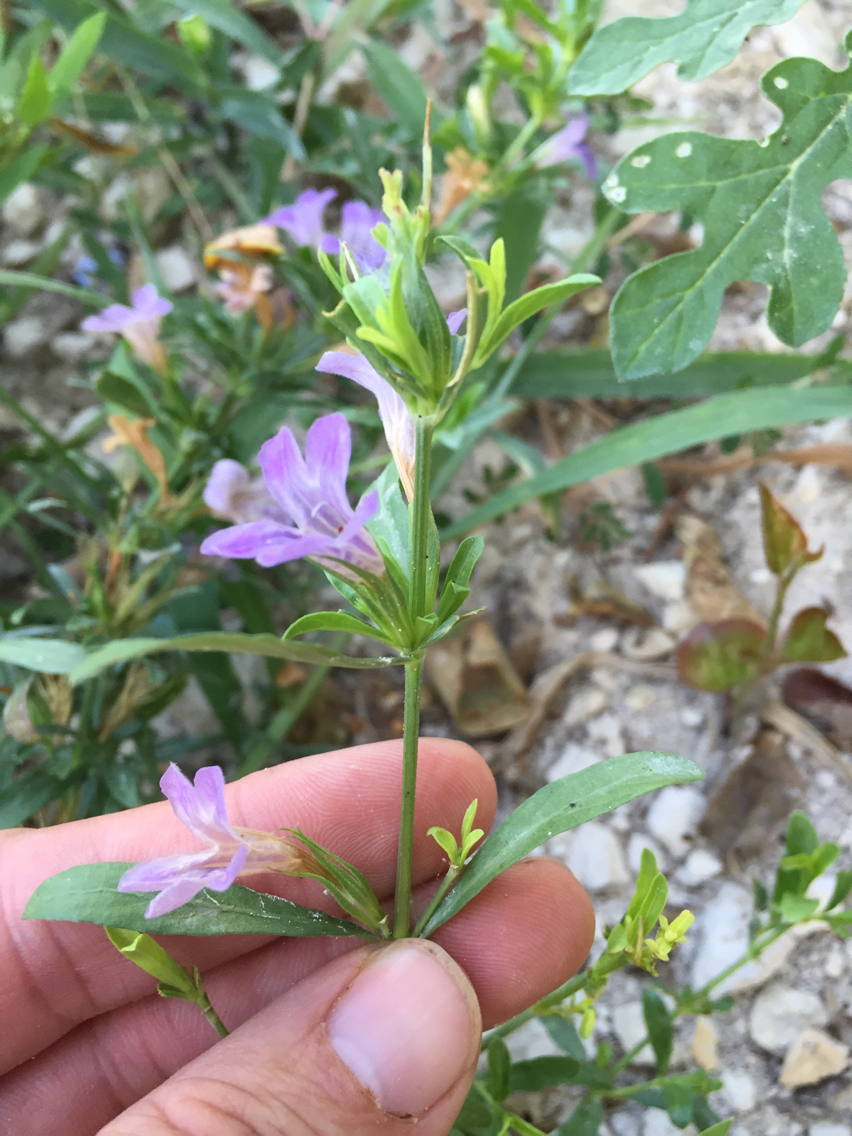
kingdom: Plantae
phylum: Tracheophyta
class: Magnoliopsida
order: Lamiales
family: Acanthaceae
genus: Dyschoriste
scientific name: Dyschoriste linearis
